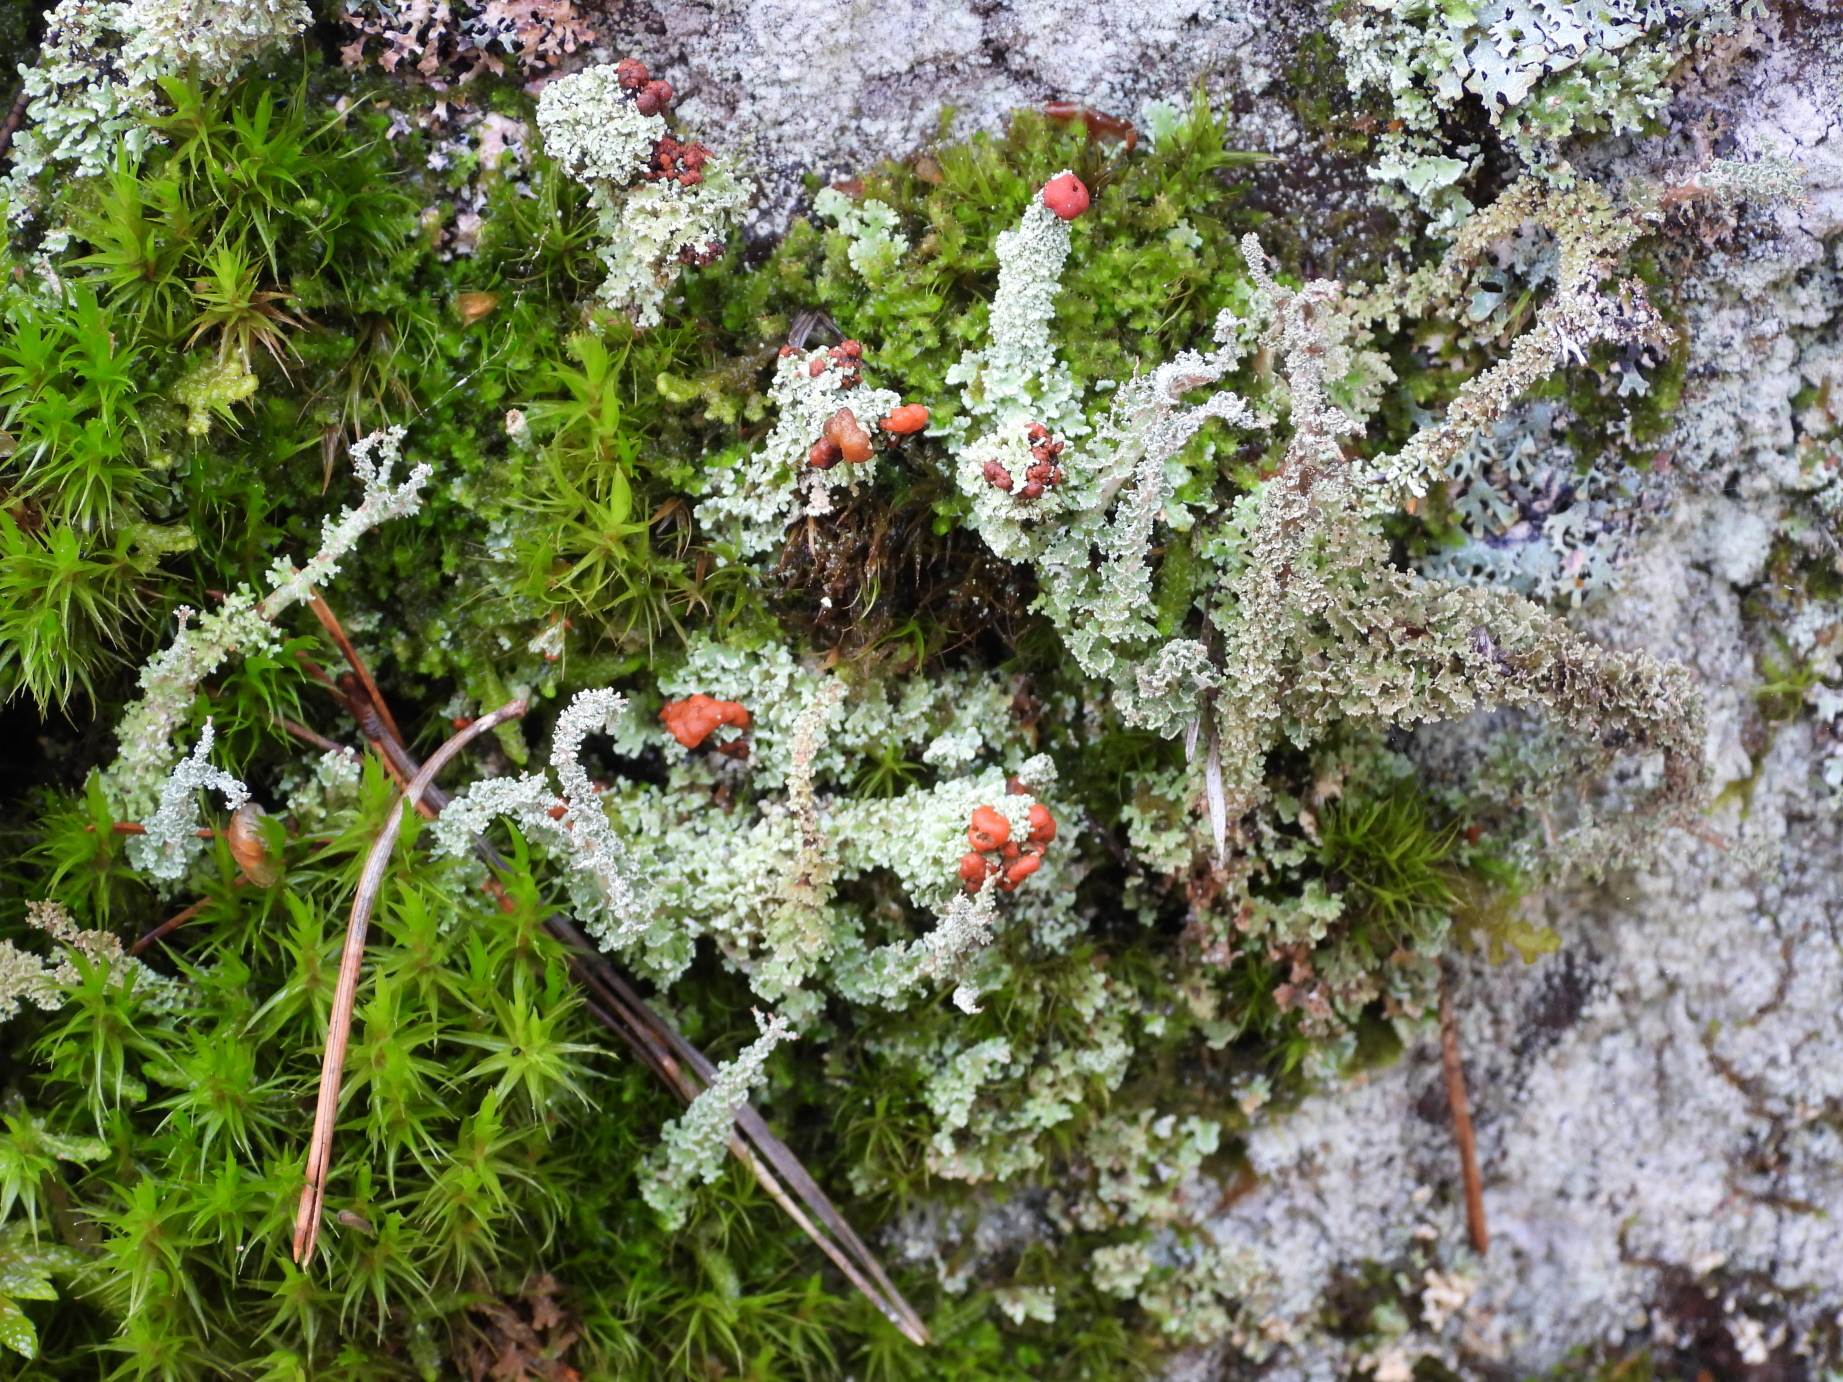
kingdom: Fungi
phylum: Ascomycota
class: Lecanoromycetes
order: Lecanorales
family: Cladoniaceae
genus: Cladonia
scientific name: Cladonia bellidiflora
